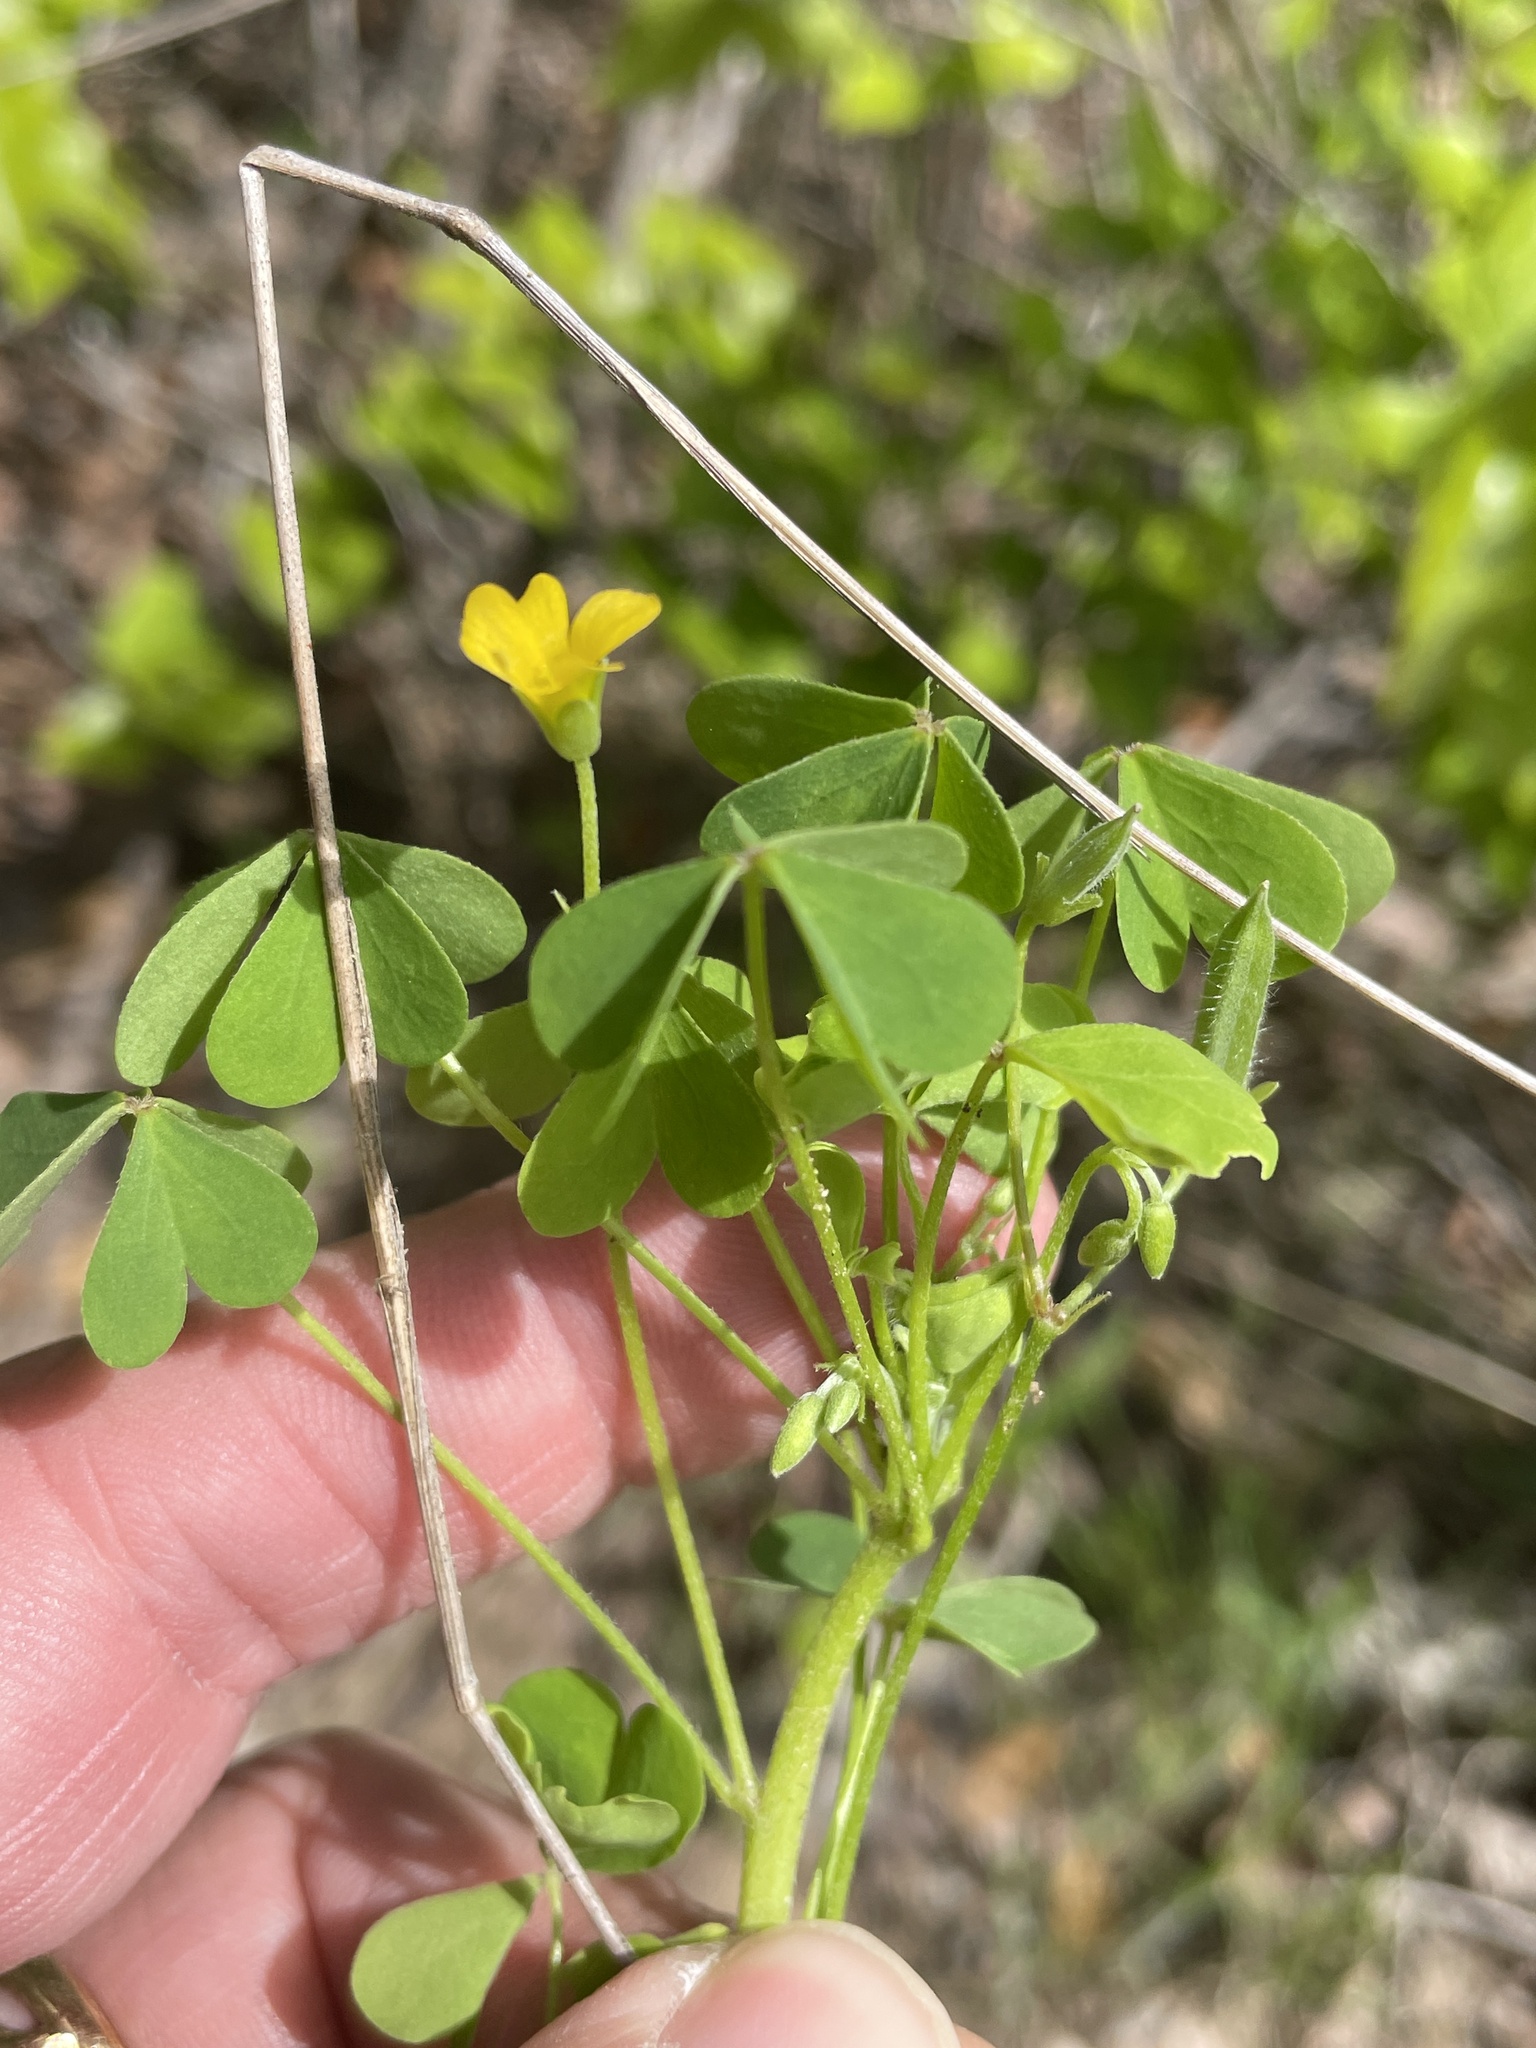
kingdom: Plantae
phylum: Tracheophyta
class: Magnoliopsida
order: Oxalidales
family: Oxalidaceae
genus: Oxalis
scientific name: Oxalis dillenii
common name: Sussex yellow-sorrel
